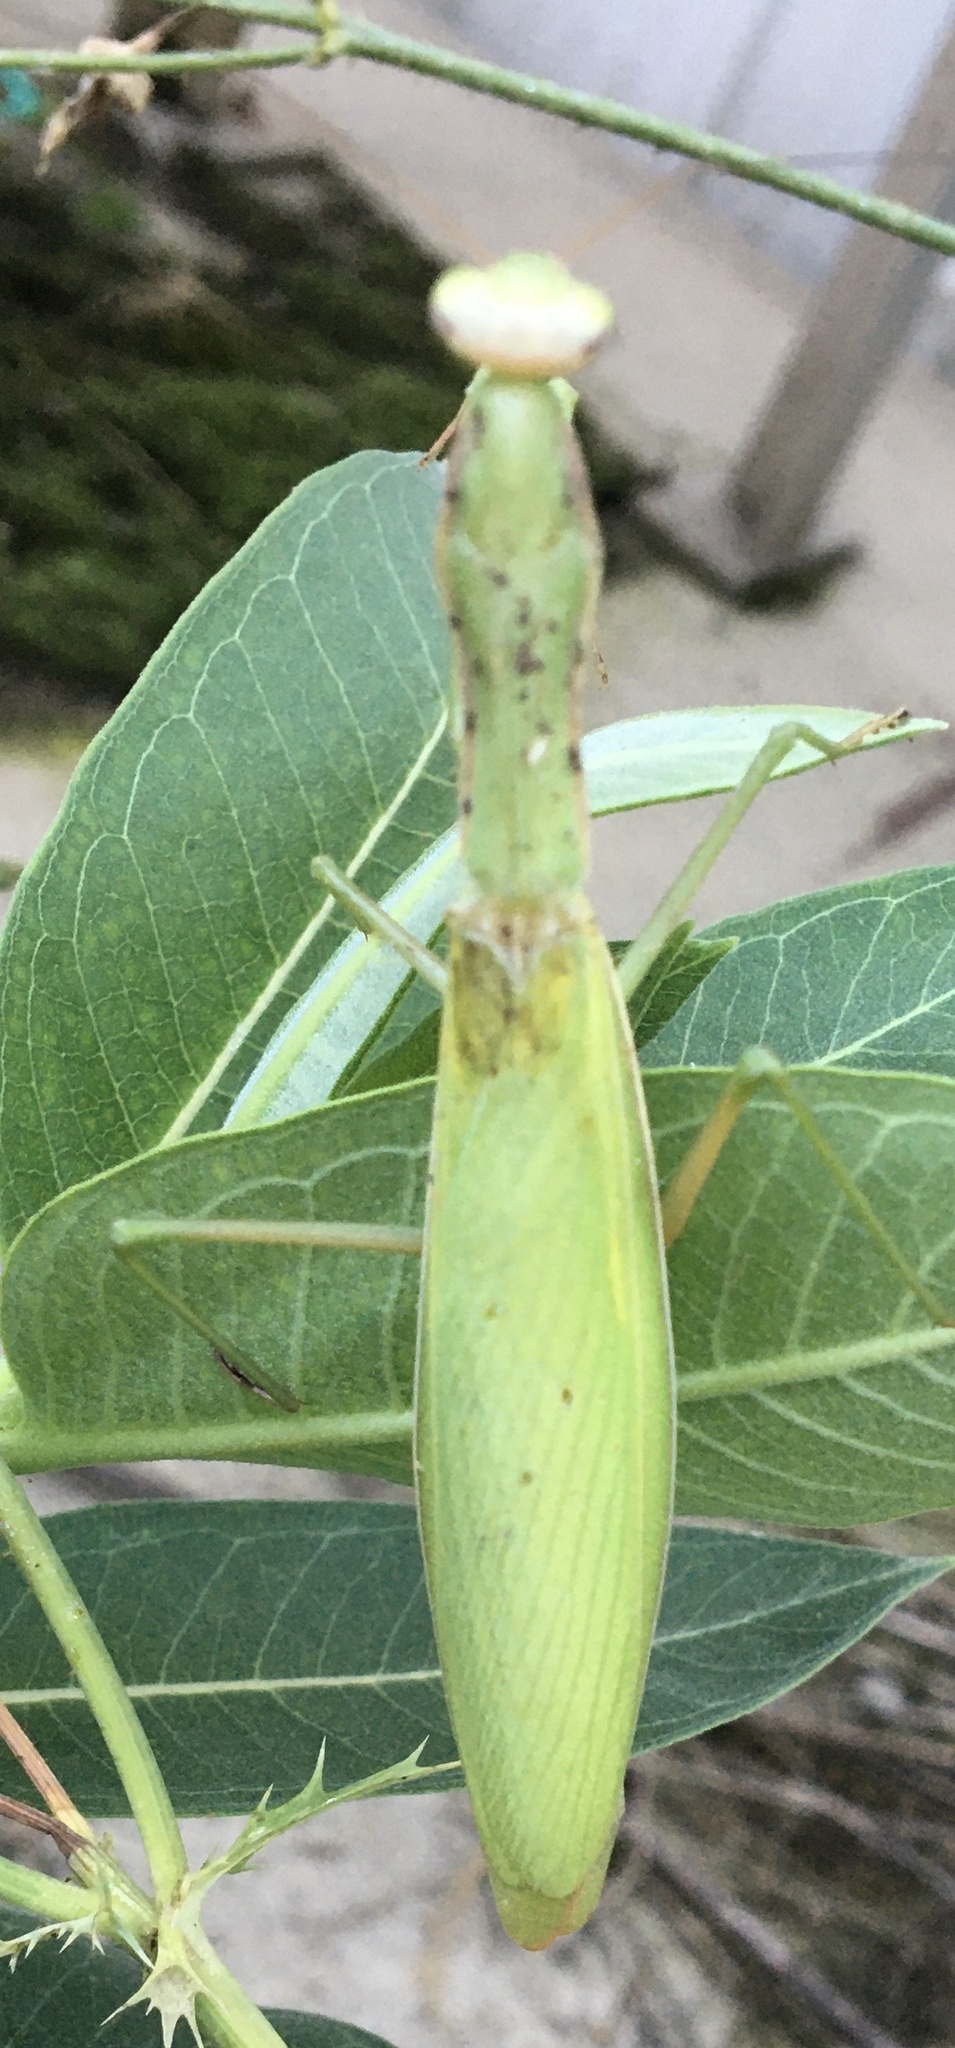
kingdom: Animalia
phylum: Arthropoda
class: Insecta
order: Mantodea
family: Mantidae
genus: Mantis
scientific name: Mantis religiosa
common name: Praying mantis
